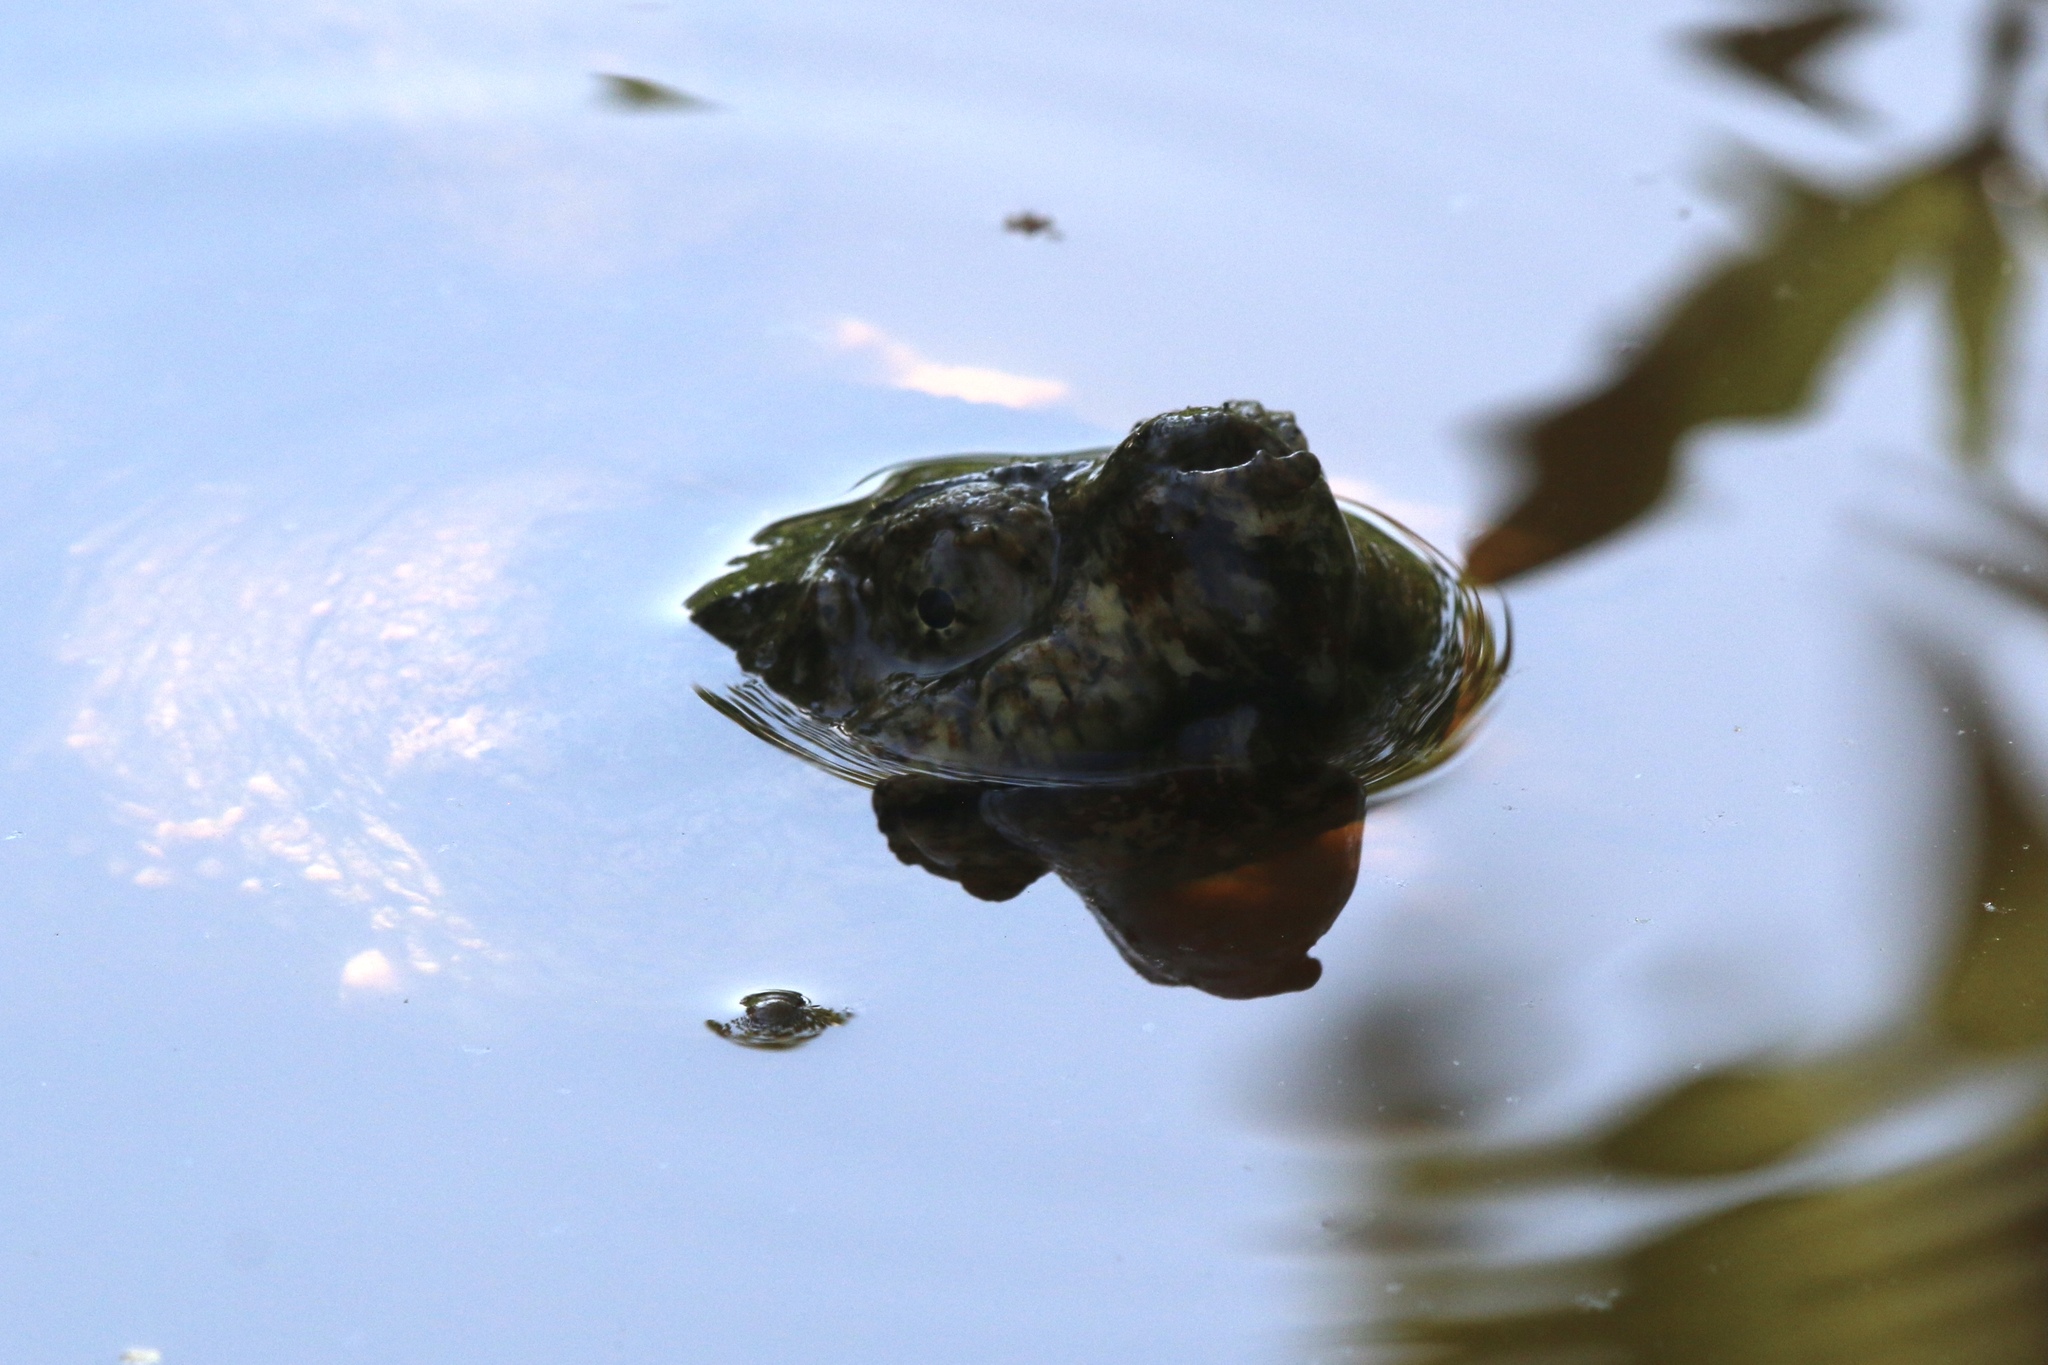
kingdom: Animalia
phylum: Chordata
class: Testudines
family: Chelydridae
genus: Chelydra
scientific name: Chelydra serpentina
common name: Common snapping turtle
